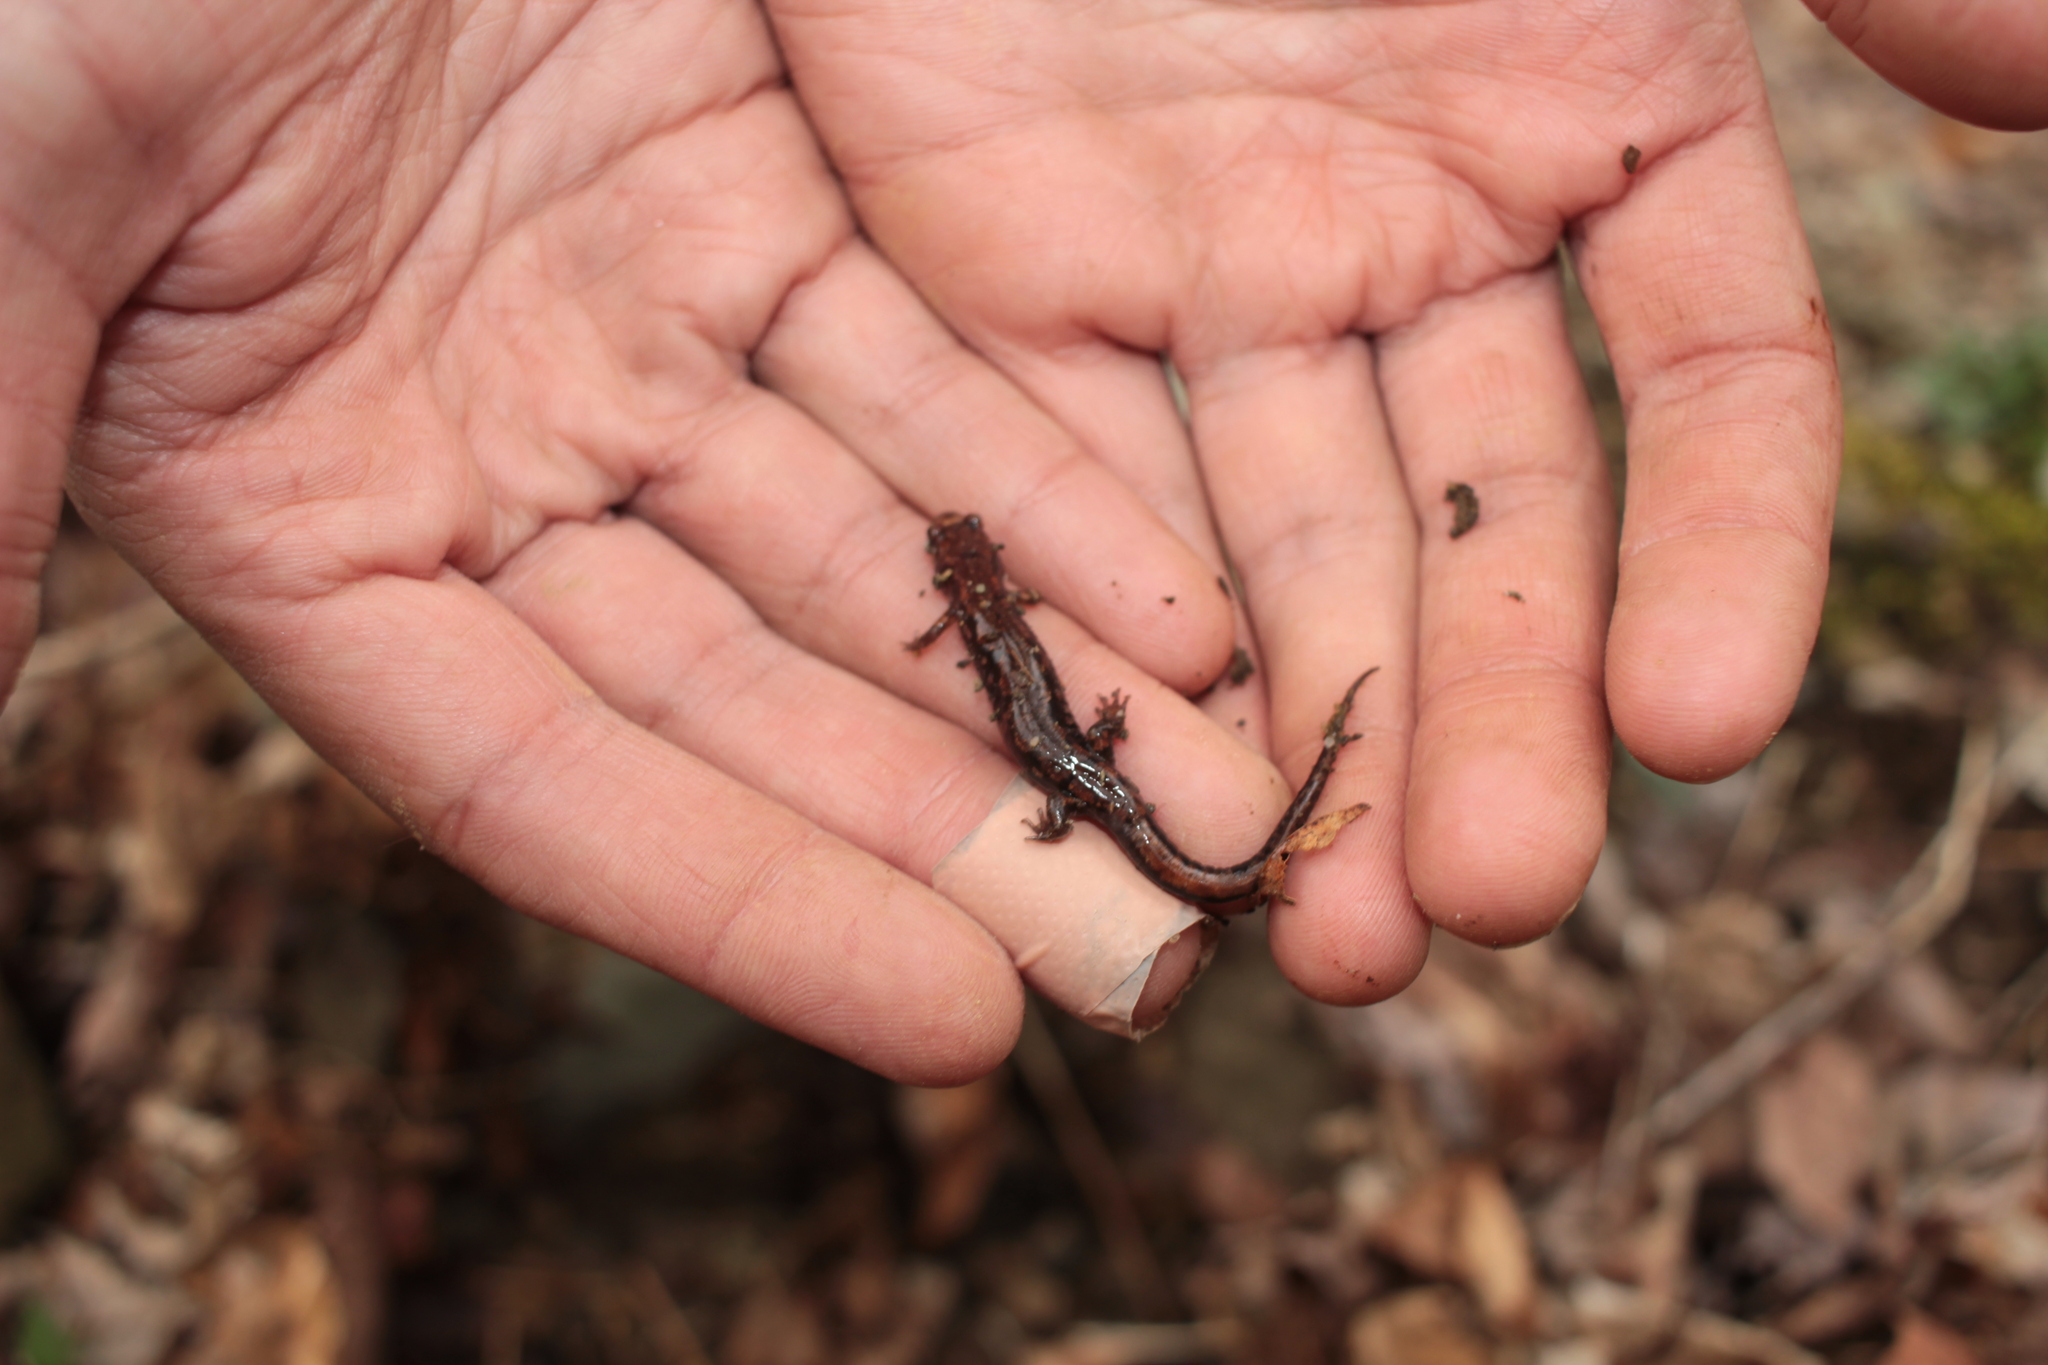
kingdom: Animalia
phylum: Chordata
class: Amphibia
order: Caudata
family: Plethodontidae
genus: Desmognathus
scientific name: Desmognathus orestes
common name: Blue ridge dusky salamander
